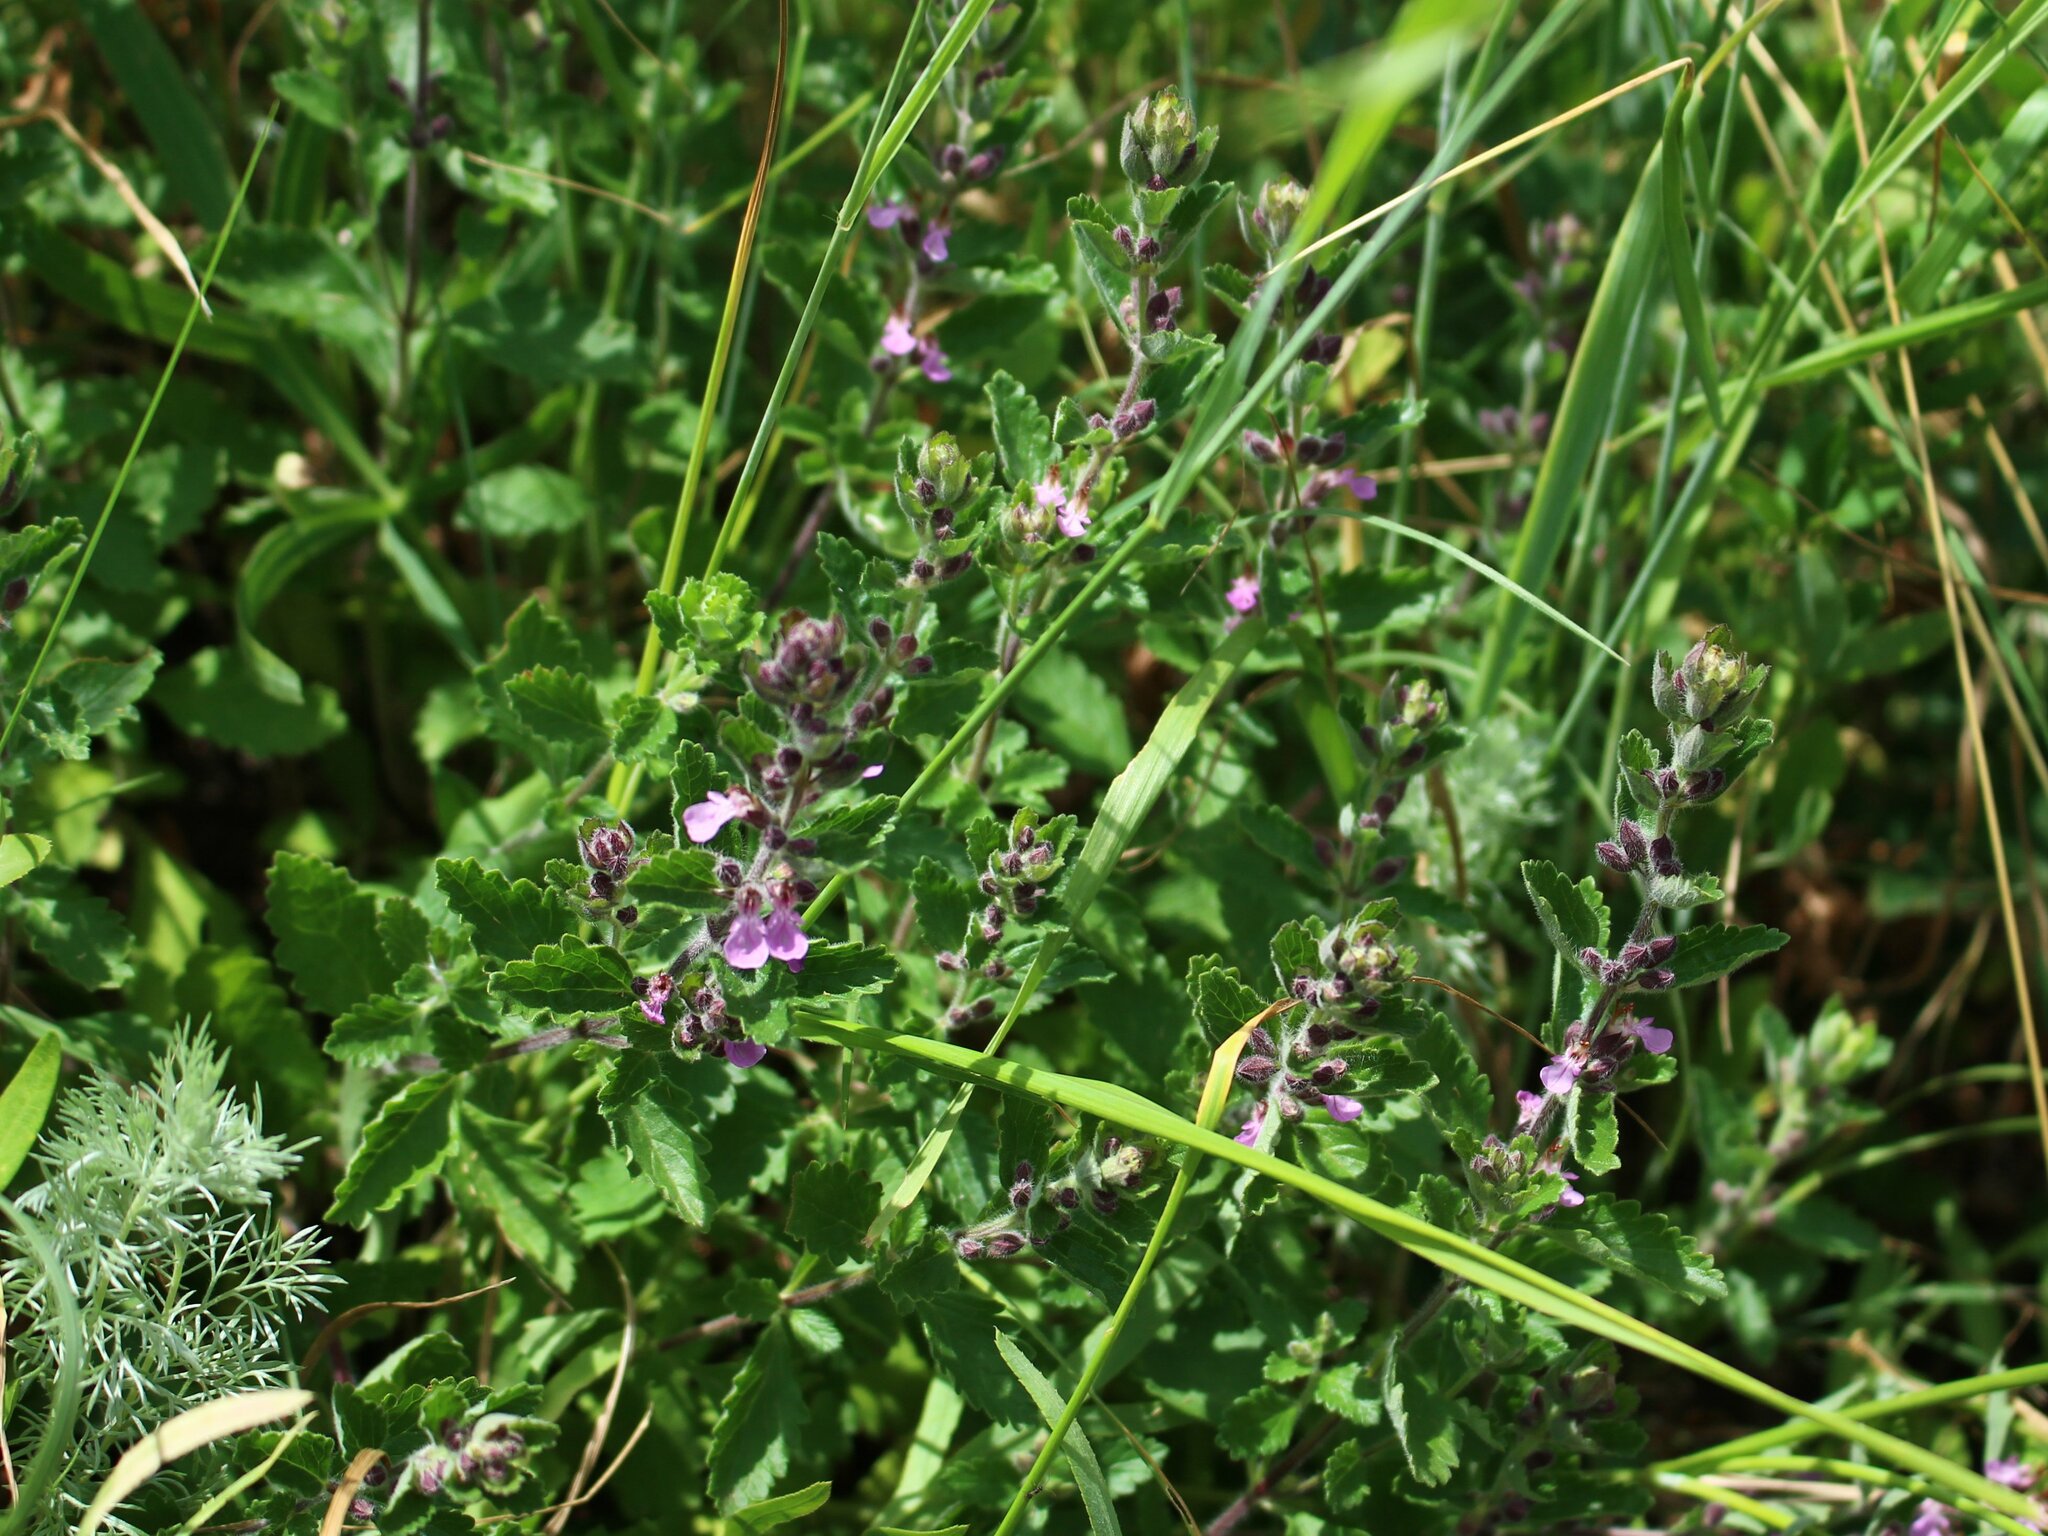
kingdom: Plantae
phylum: Tracheophyta
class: Magnoliopsida
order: Lamiales
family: Lamiaceae
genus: Teucrium
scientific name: Teucrium chamaedrys
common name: Wall germander
